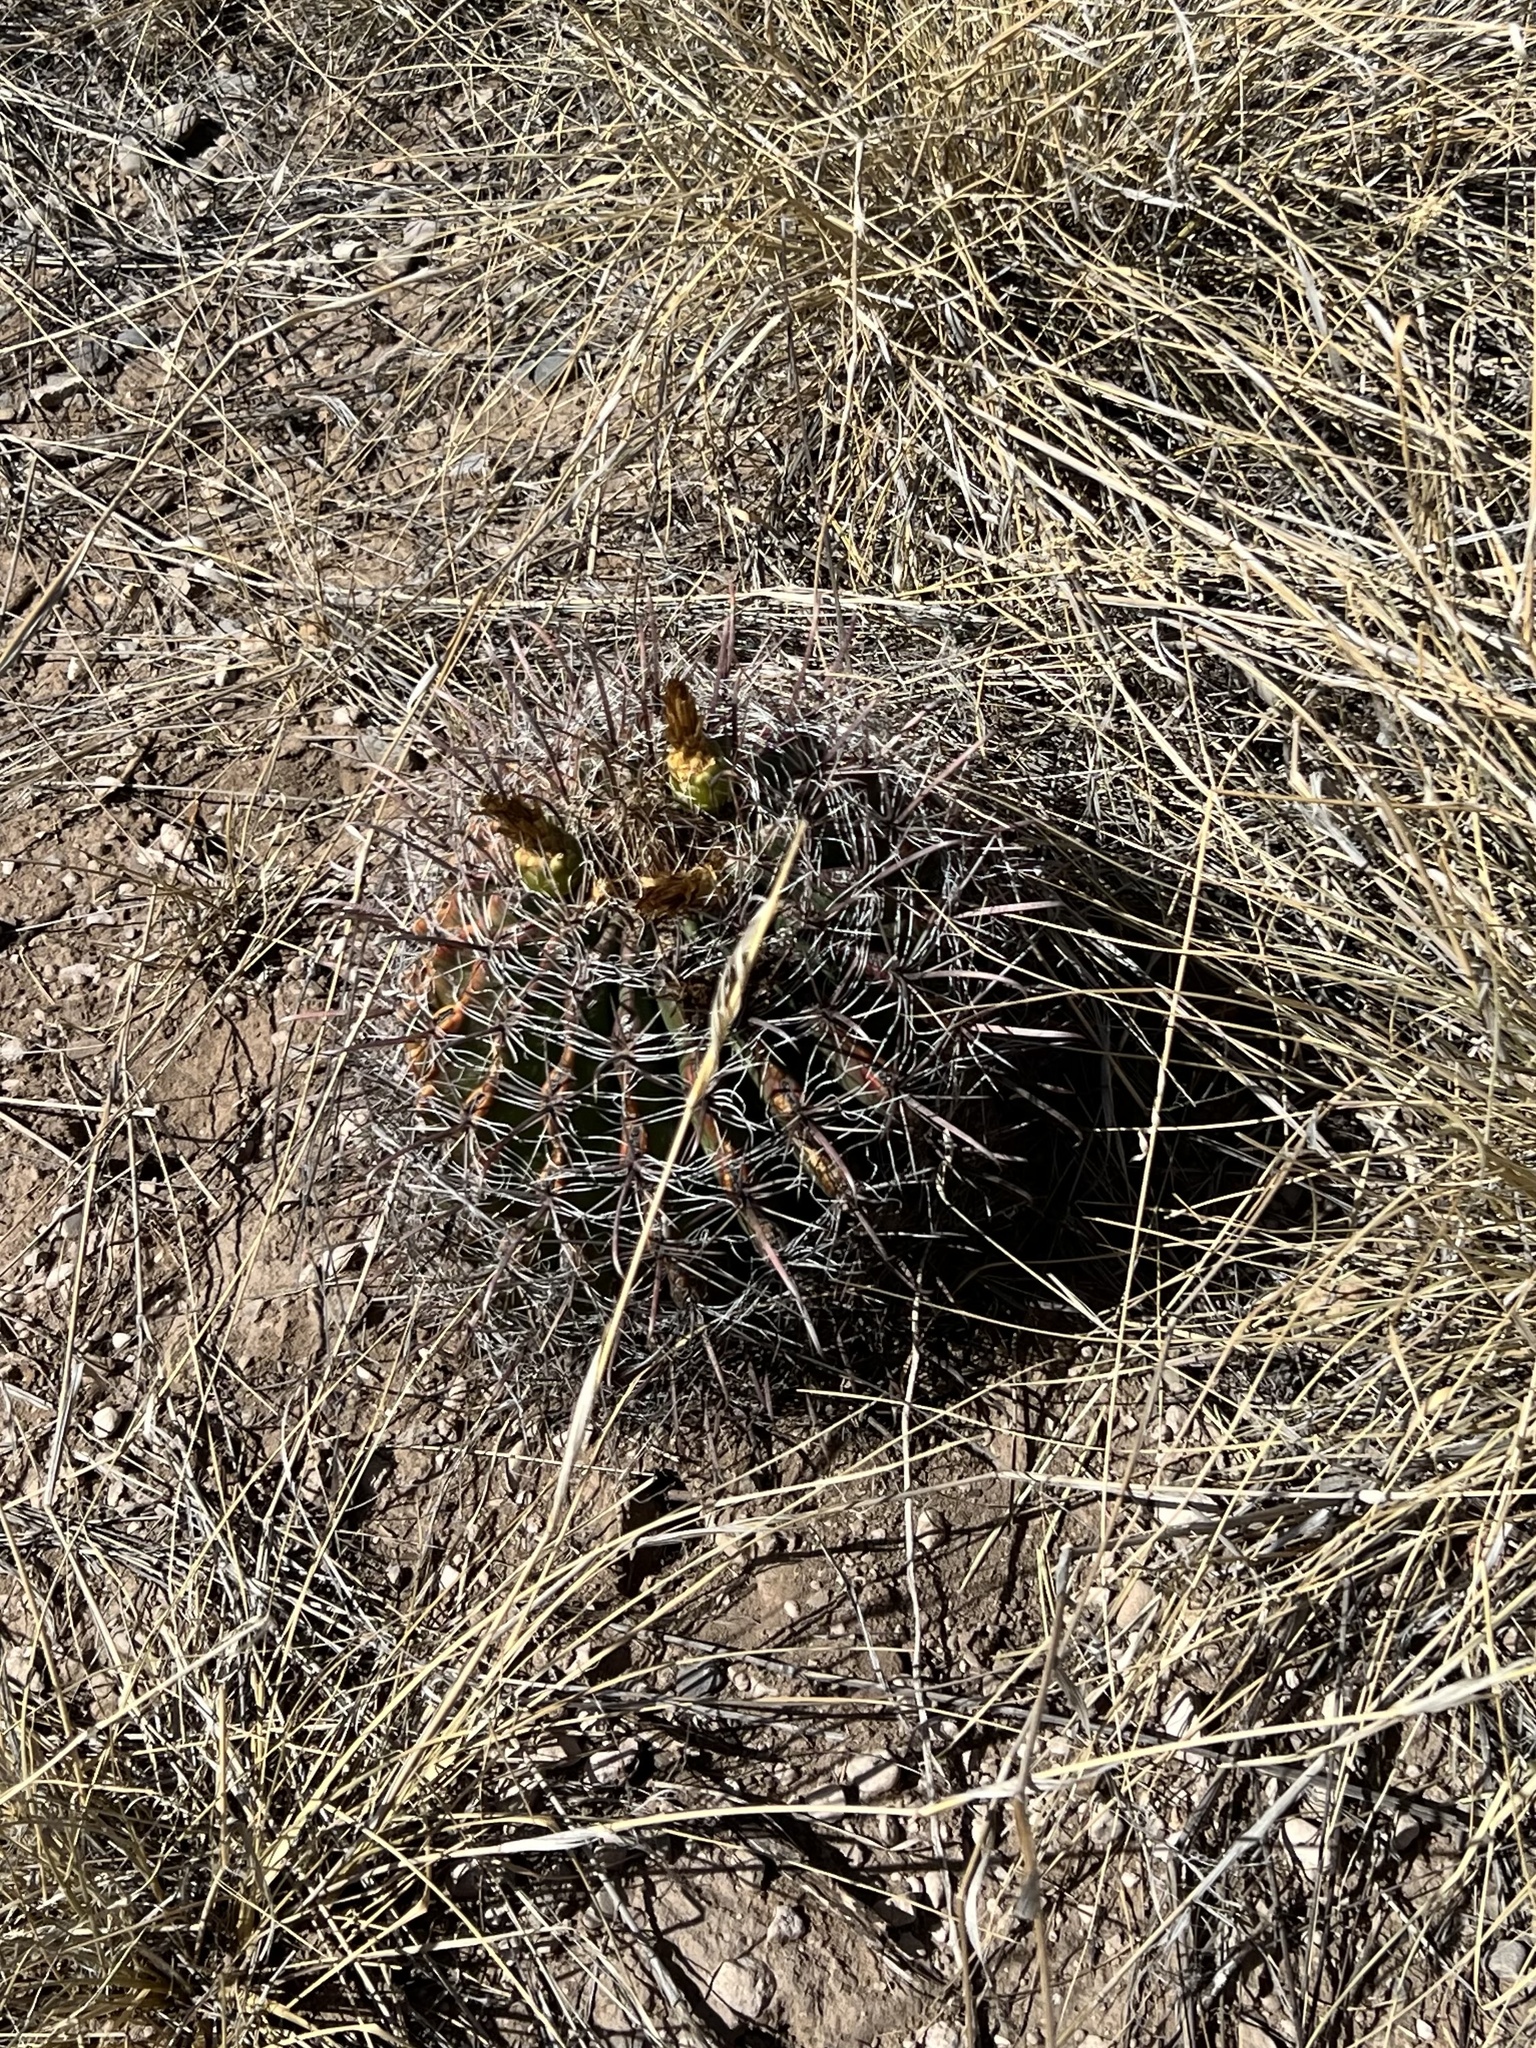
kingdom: Plantae
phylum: Tracheophyta
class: Magnoliopsida
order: Caryophyllales
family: Cactaceae
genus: Ferocactus
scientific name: Ferocactus wislizeni
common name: Candy barrel cactus
